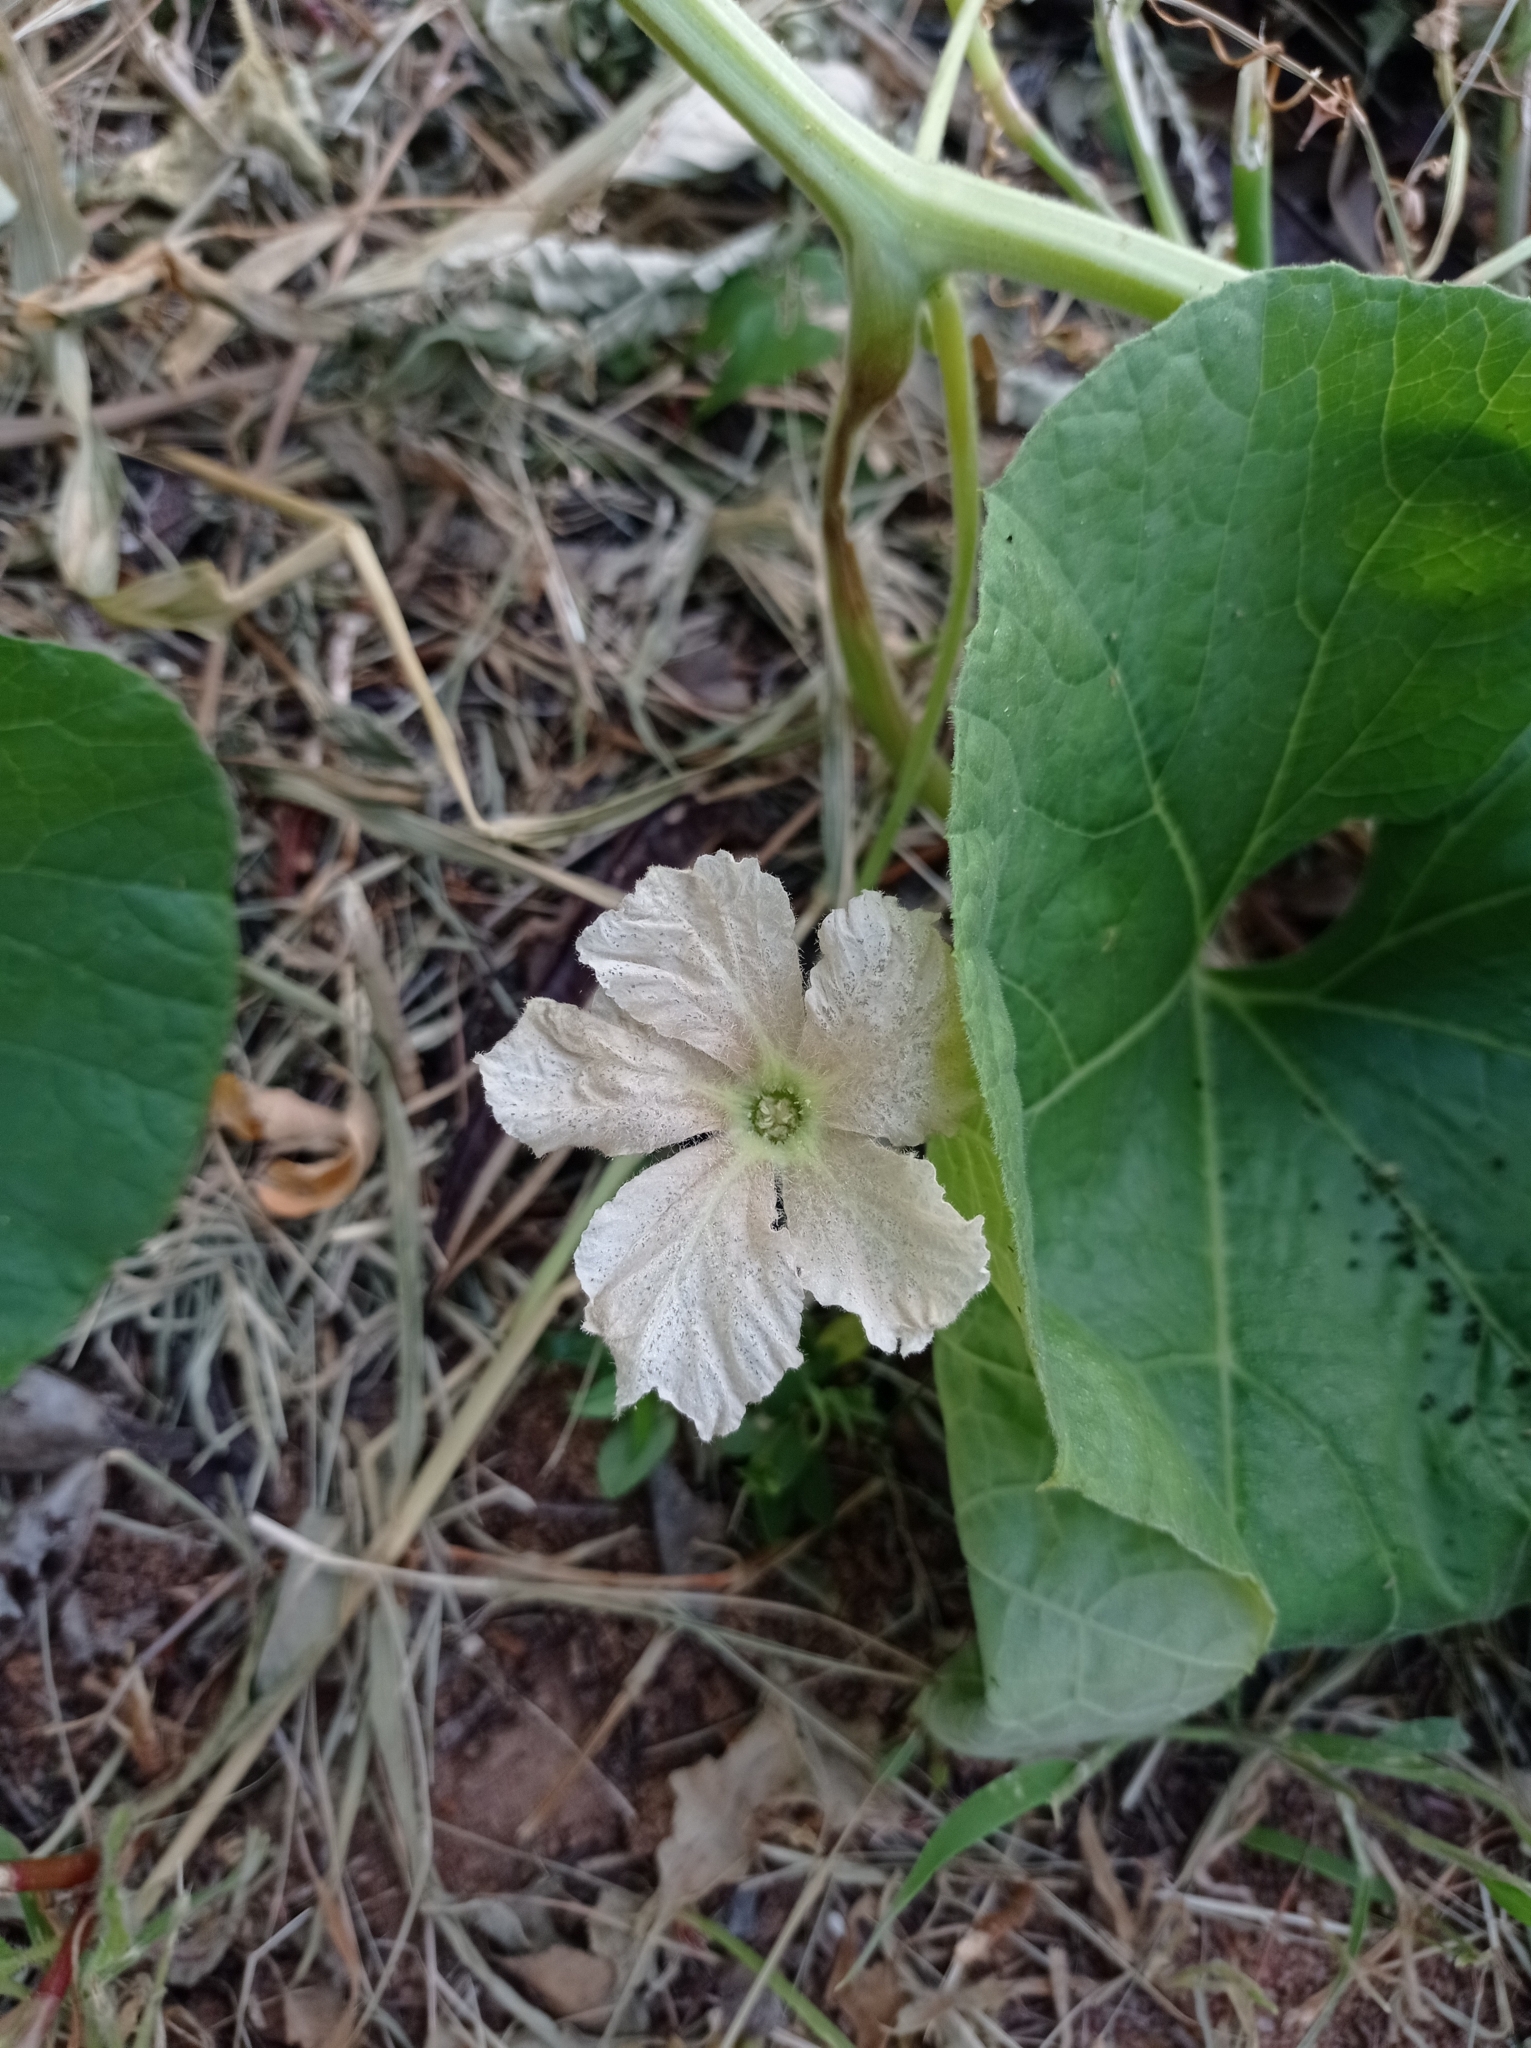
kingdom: Plantae
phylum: Tracheophyta
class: Magnoliopsida
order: Cucurbitales
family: Cucurbitaceae
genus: Lagenaria
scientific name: Lagenaria siceraria
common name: Bottle gourd
